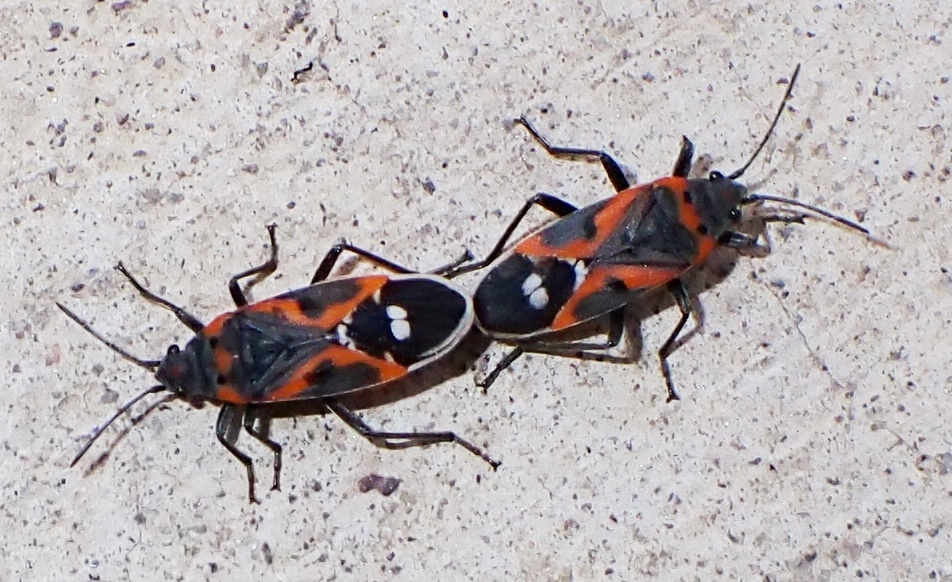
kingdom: Animalia
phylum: Arthropoda
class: Insecta
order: Hemiptera
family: Lygaeidae
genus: Lygaeus
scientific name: Lygaeus kalmii
